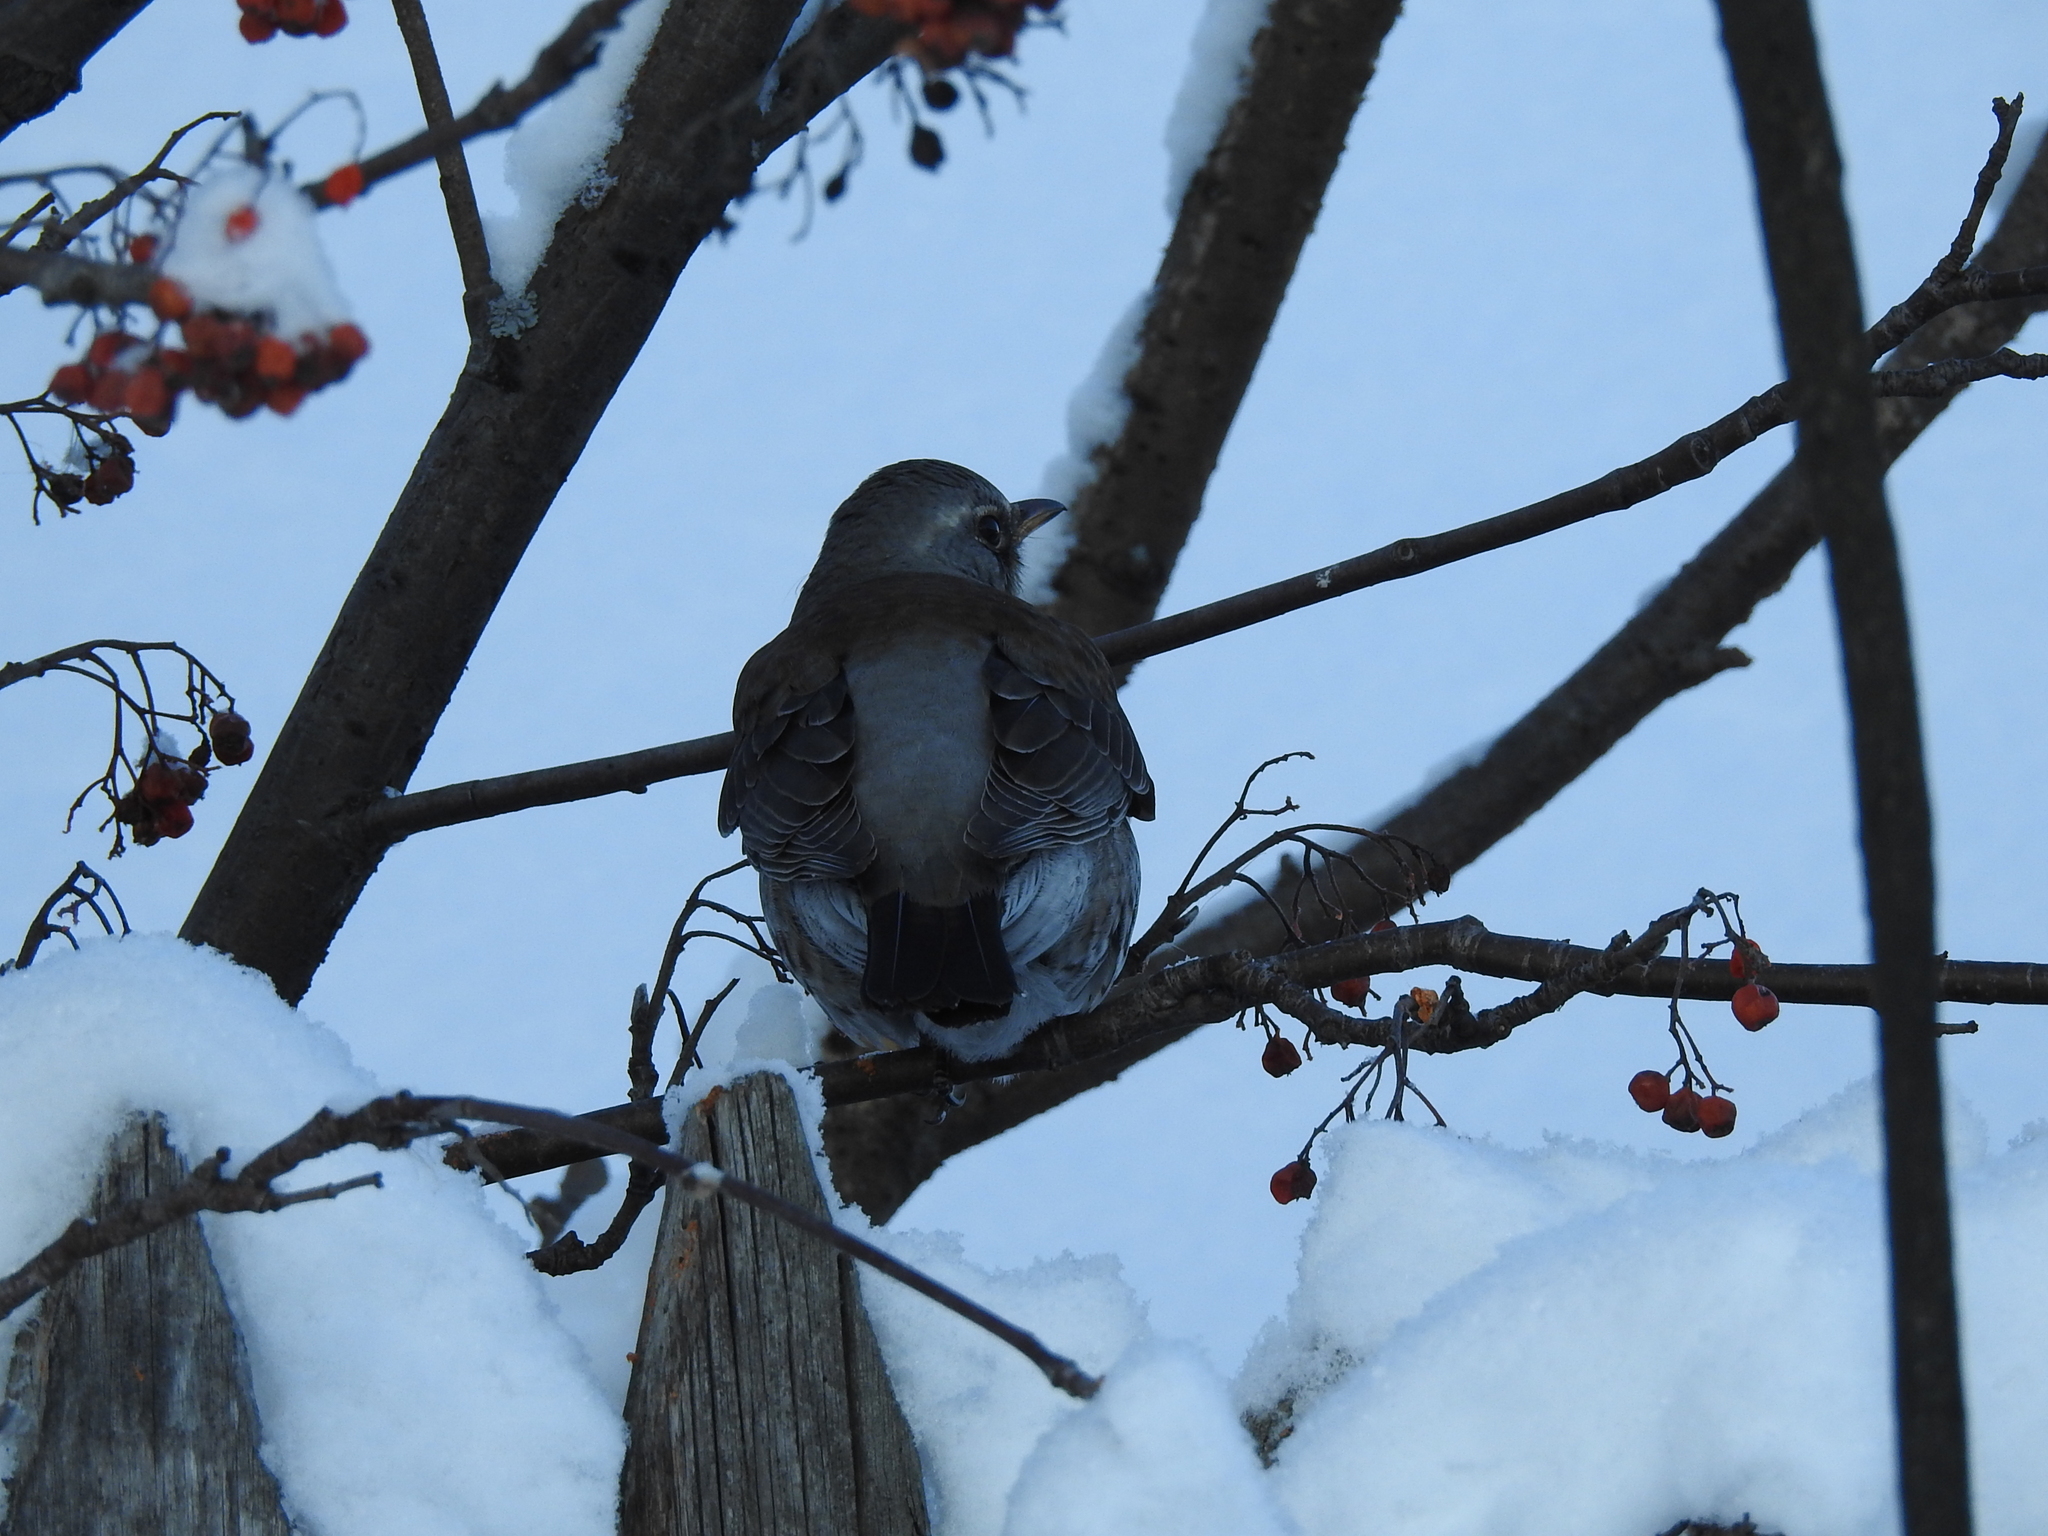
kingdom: Animalia
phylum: Chordata
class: Aves
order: Passeriformes
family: Turdidae
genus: Turdus
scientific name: Turdus pilaris
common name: Fieldfare
